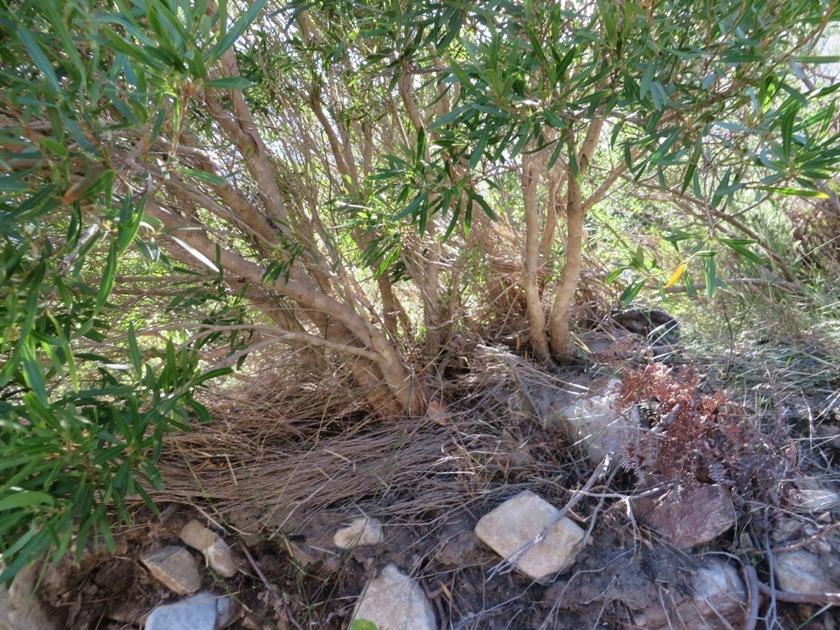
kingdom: Plantae
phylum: Tracheophyta
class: Magnoliopsida
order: Myrtales
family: Myrtaceae
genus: Callistemon
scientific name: Callistemon lanceolatus
